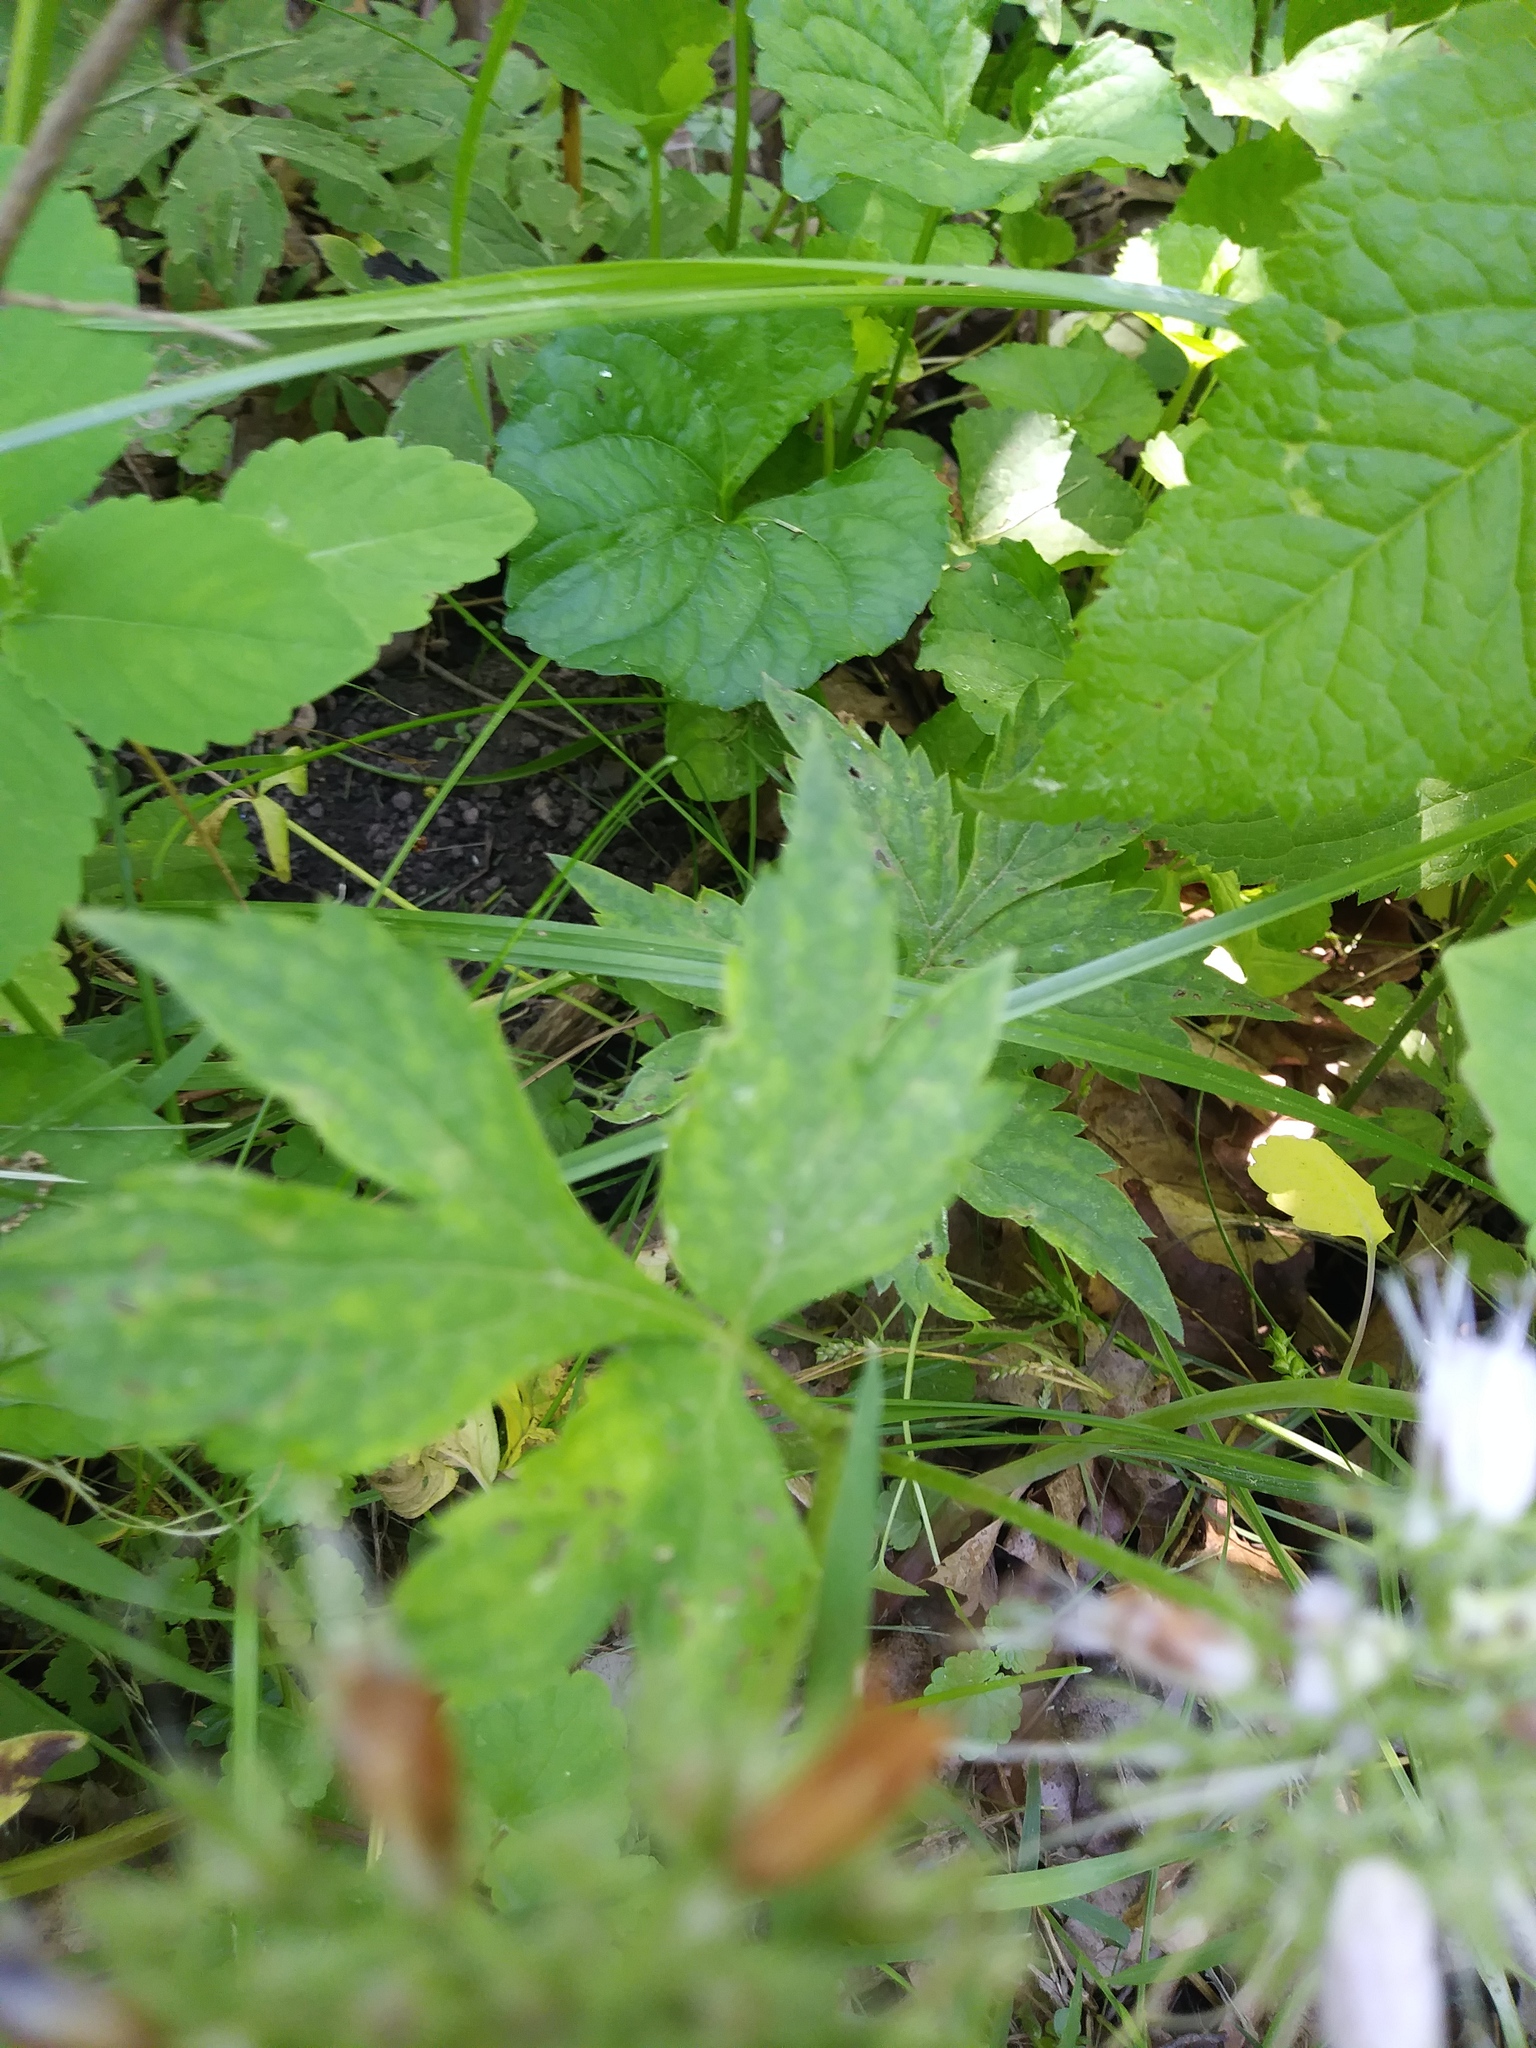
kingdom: Plantae
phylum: Tracheophyta
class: Magnoliopsida
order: Boraginales
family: Hydrophyllaceae
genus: Hydrophyllum
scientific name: Hydrophyllum virginianum
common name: Virginia waterleaf
